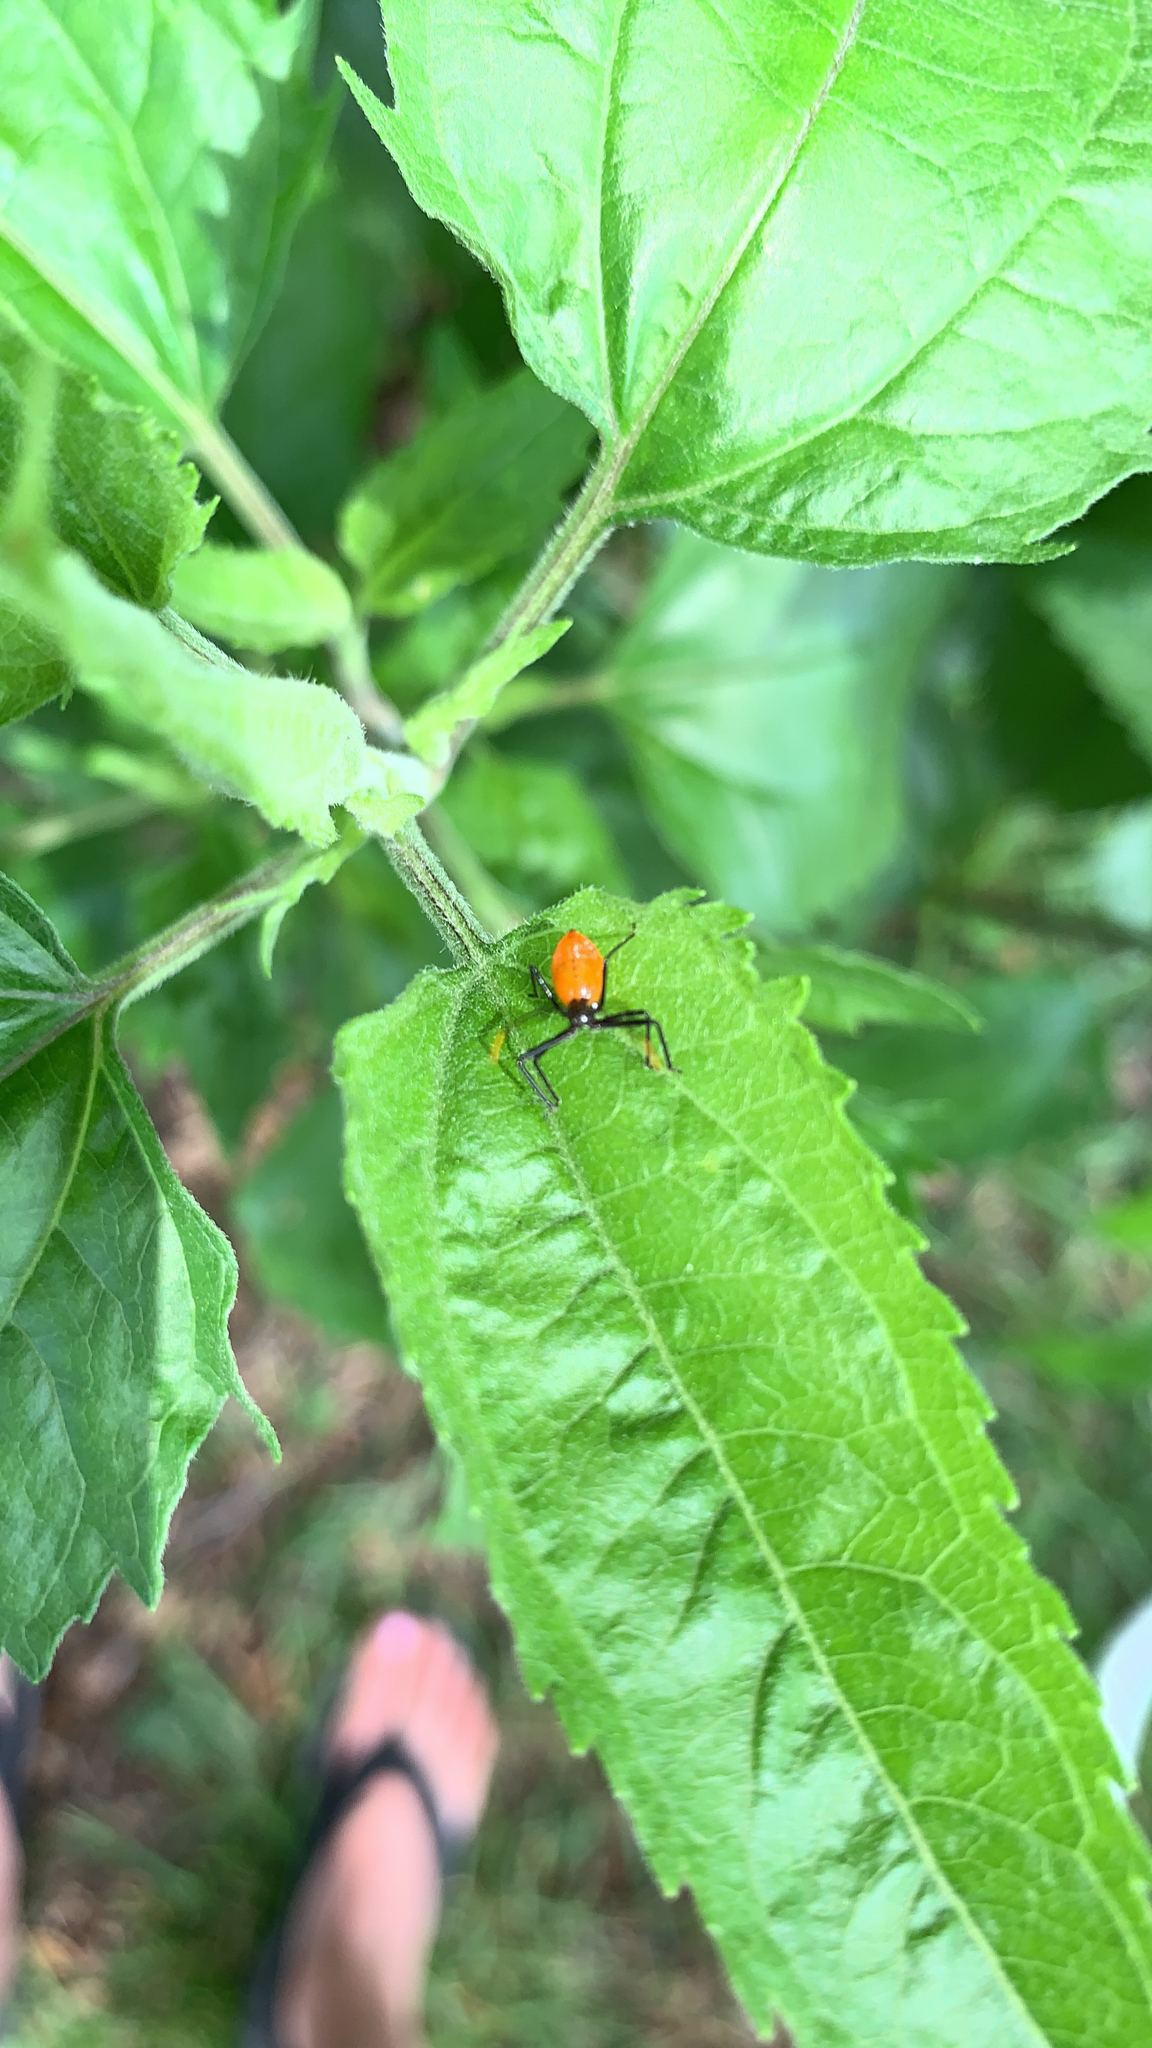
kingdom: Animalia
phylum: Arthropoda
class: Insecta
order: Hemiptera
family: Reduviidae
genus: Arilus
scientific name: Arilus cristatus
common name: North american wheel bug
